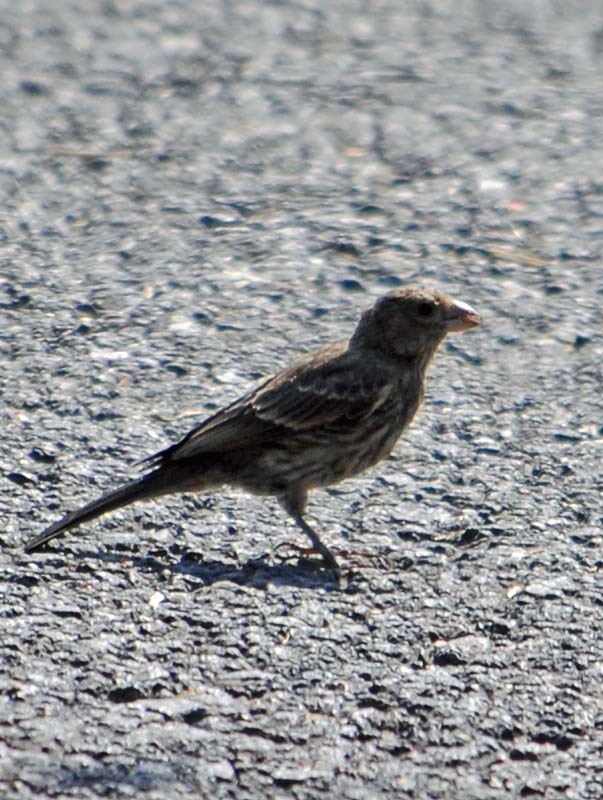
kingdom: Animalia
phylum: Chordata
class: Aves
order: Passeriformes
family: Fringillidae
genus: Haemorhous
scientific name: Haemorhous mexicanus
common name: House finch
